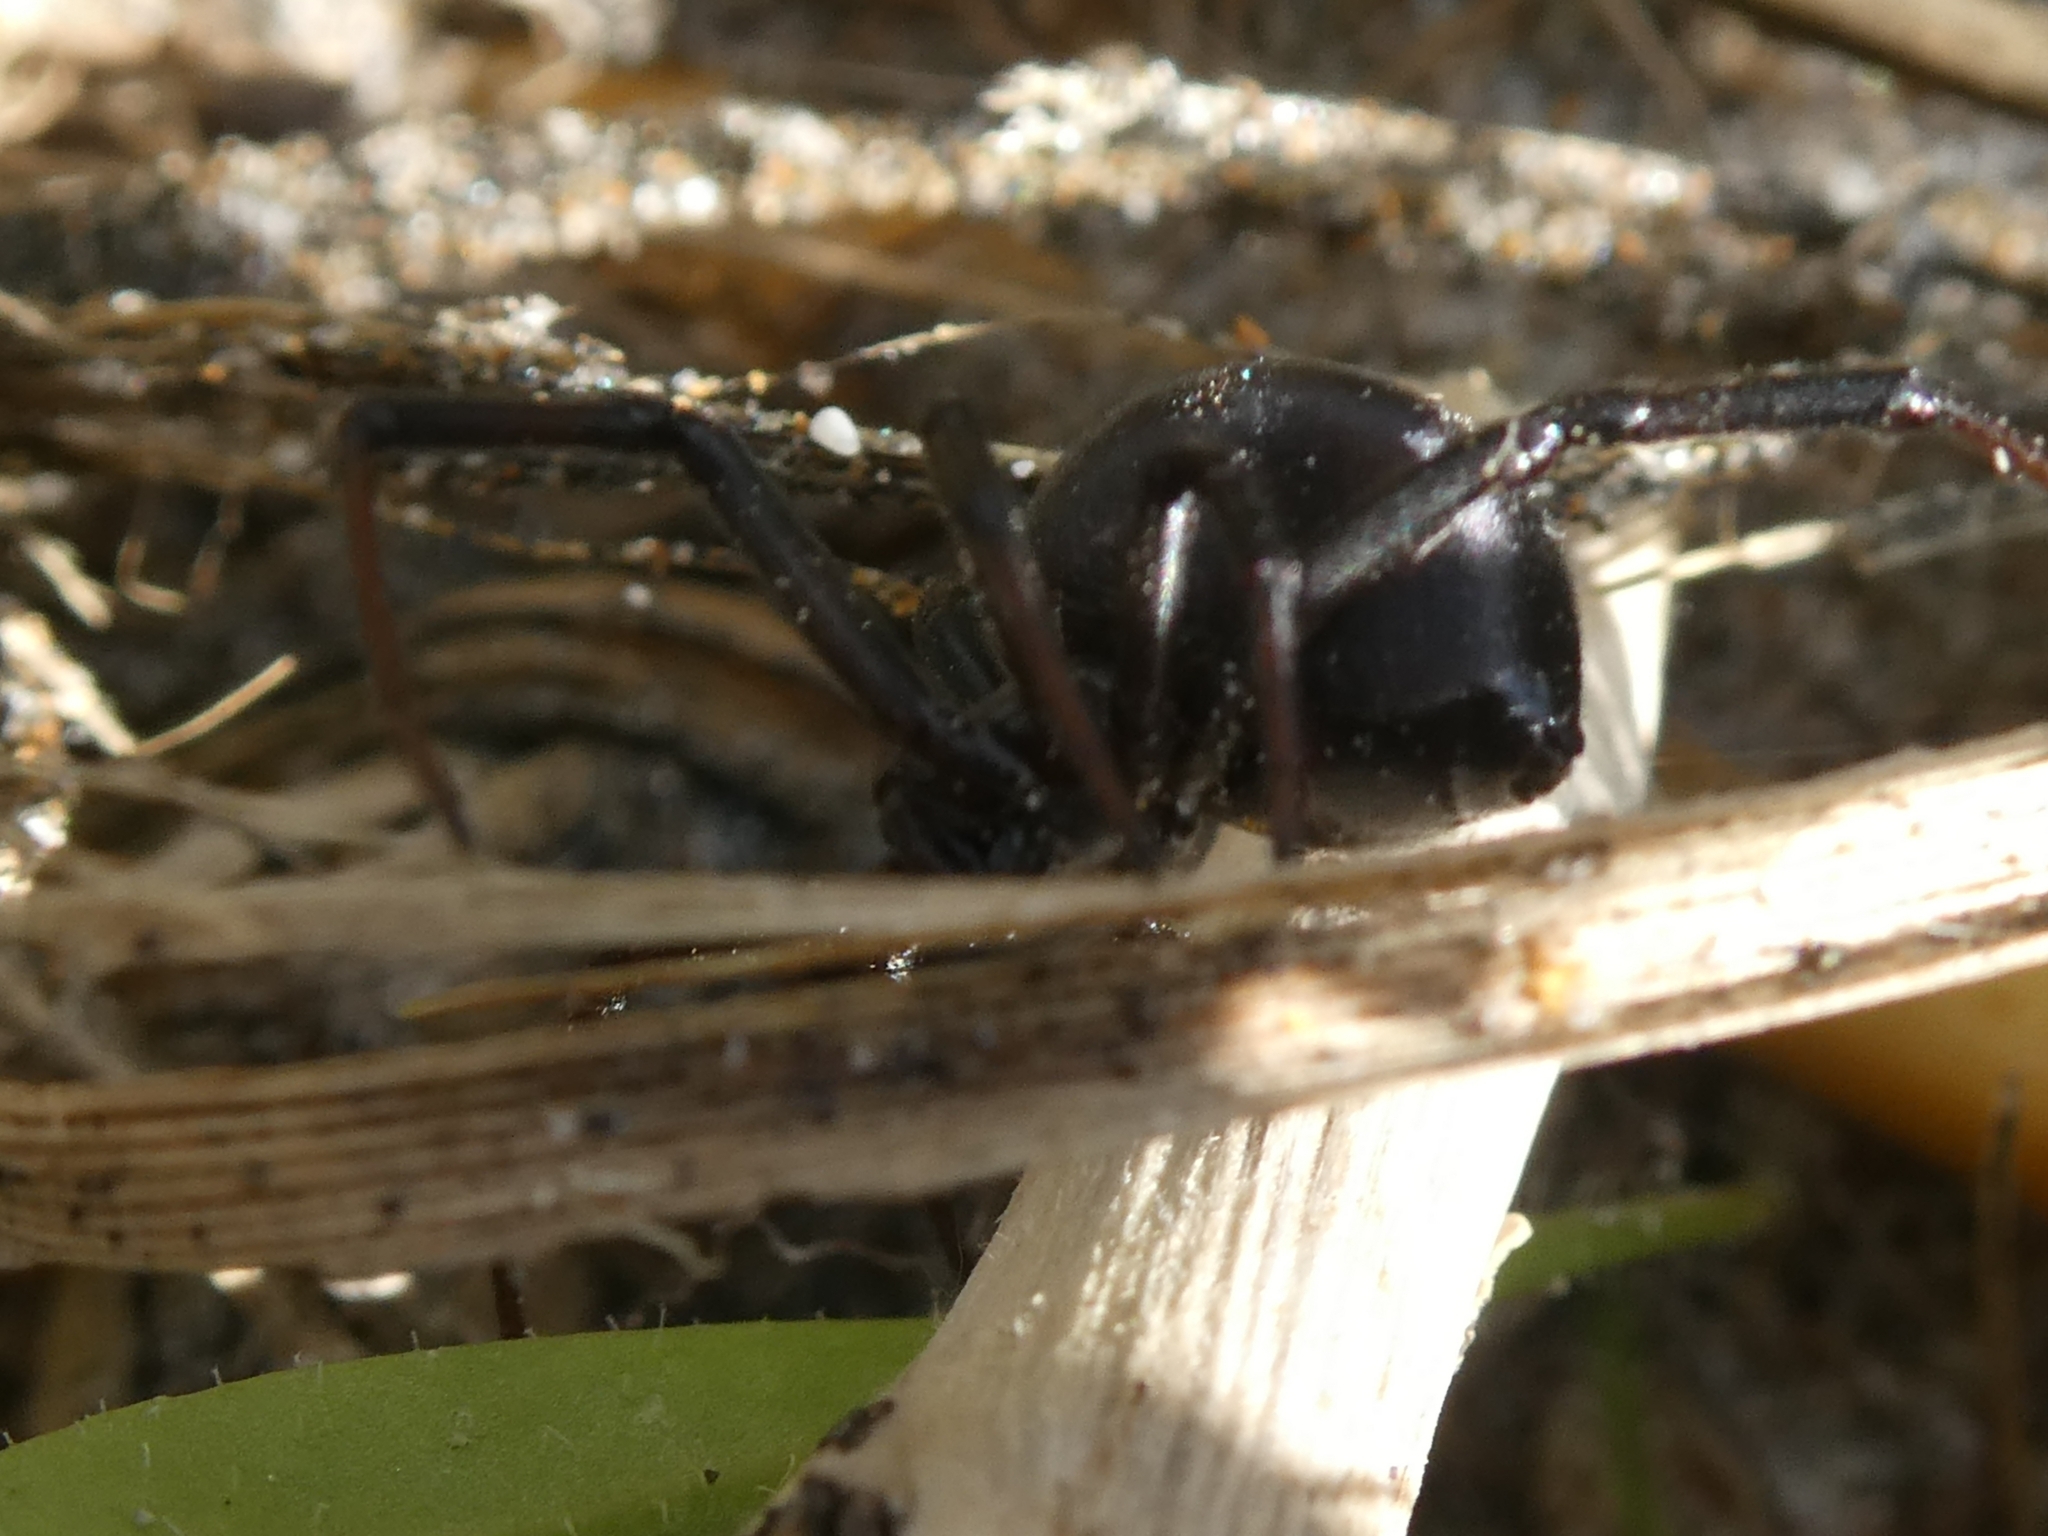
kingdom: Animalia
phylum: Arthropoda
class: Arachnida
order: Araneae
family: Theridiidae
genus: Latrodectus
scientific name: Latrodectus katipo
